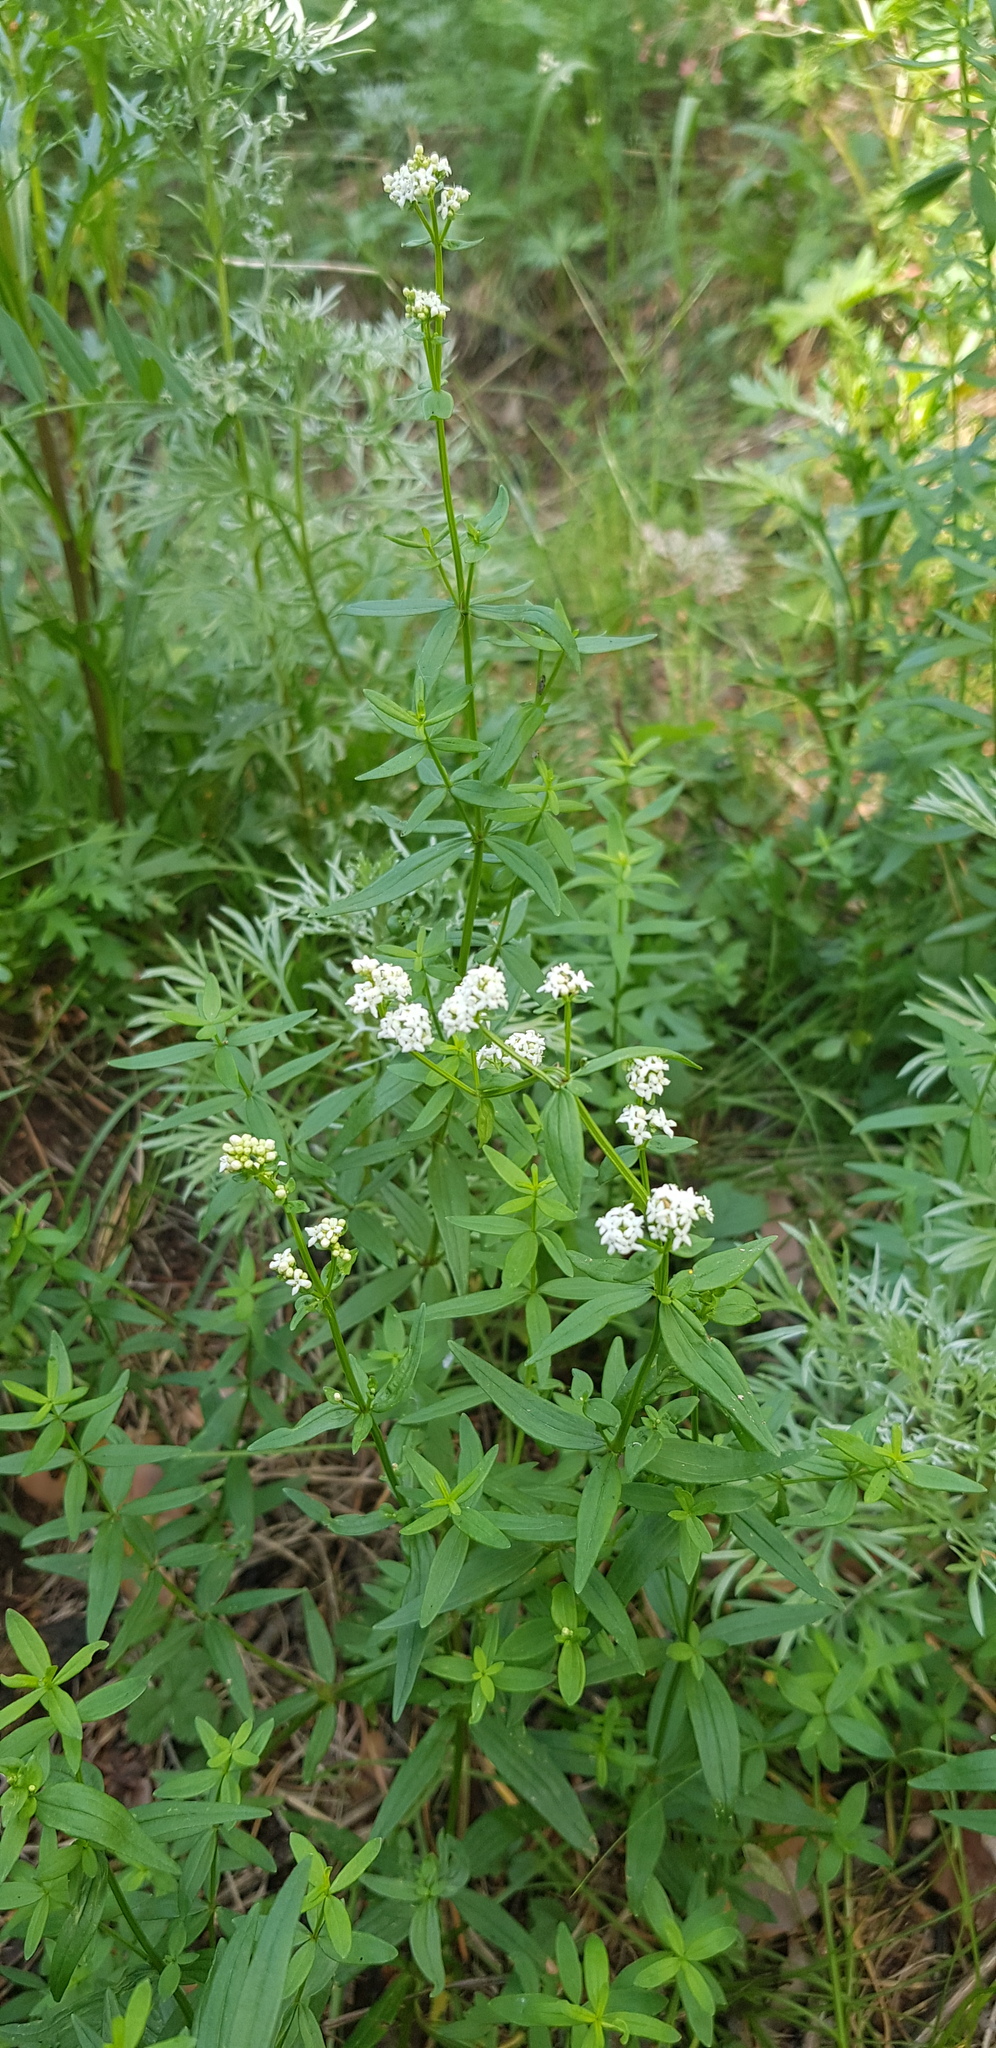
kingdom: Plantae
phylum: Tracheophyta
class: Magnoliopsida
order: Gentianales
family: Rubiaceae
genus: Galium
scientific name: Galium boreale
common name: Northern bedstraw
